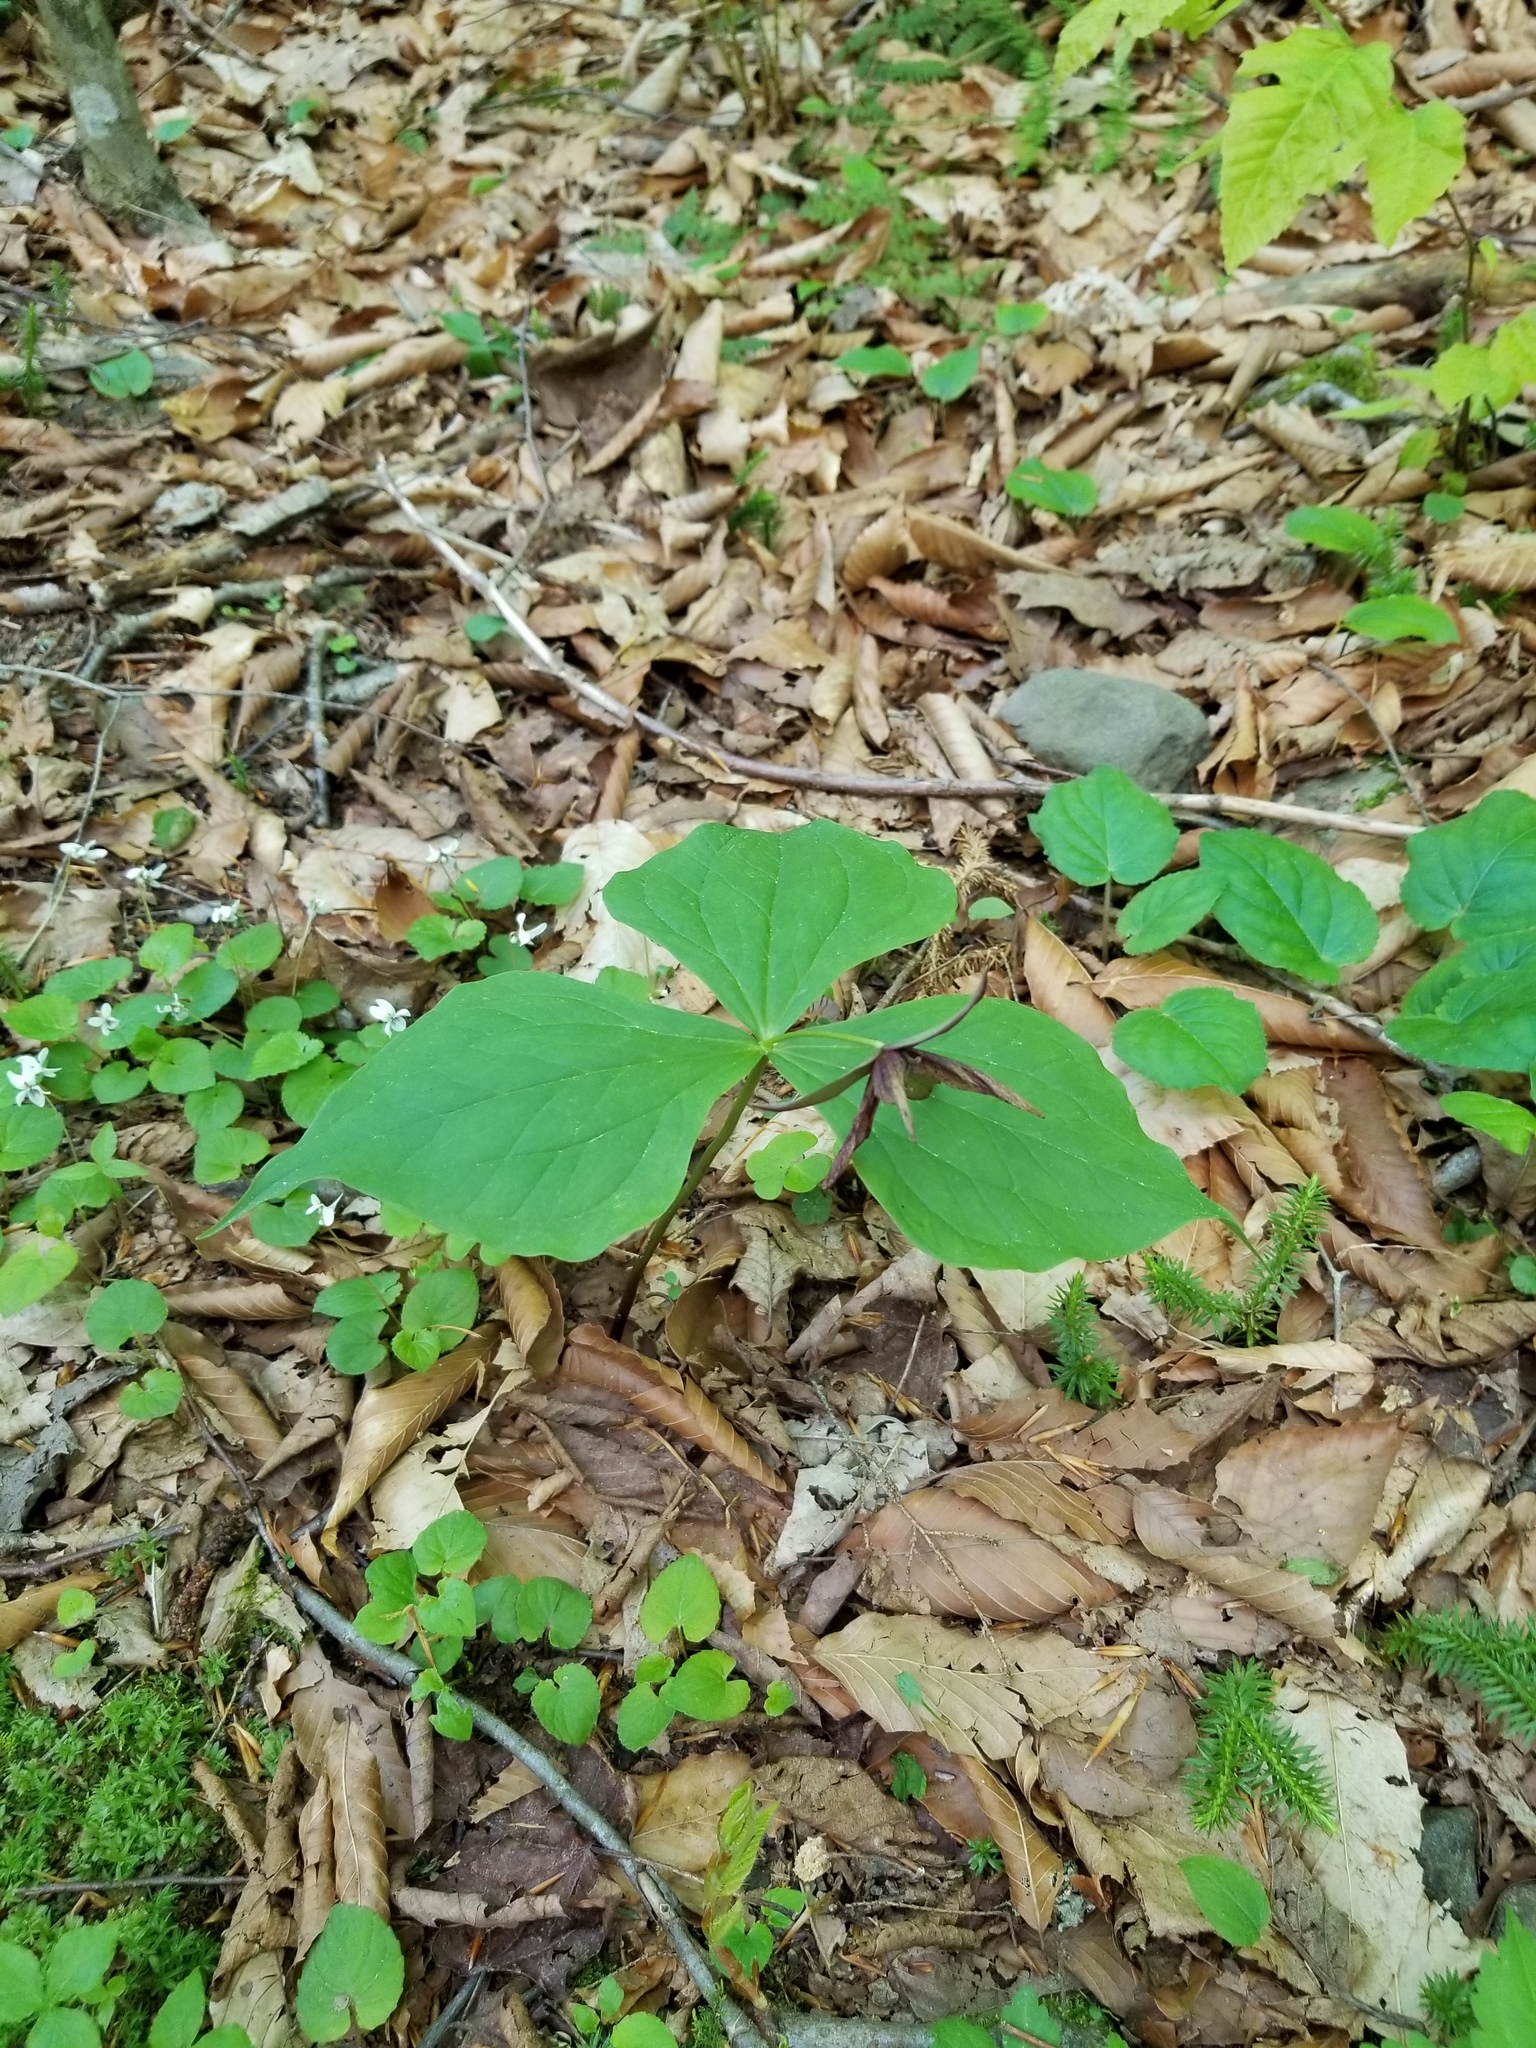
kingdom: Plantae
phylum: Tracheophyta
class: Liliopsida
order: Liliales
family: Melanthiaceae
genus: Trillium
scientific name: Trillium erectum
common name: Purple trillium
